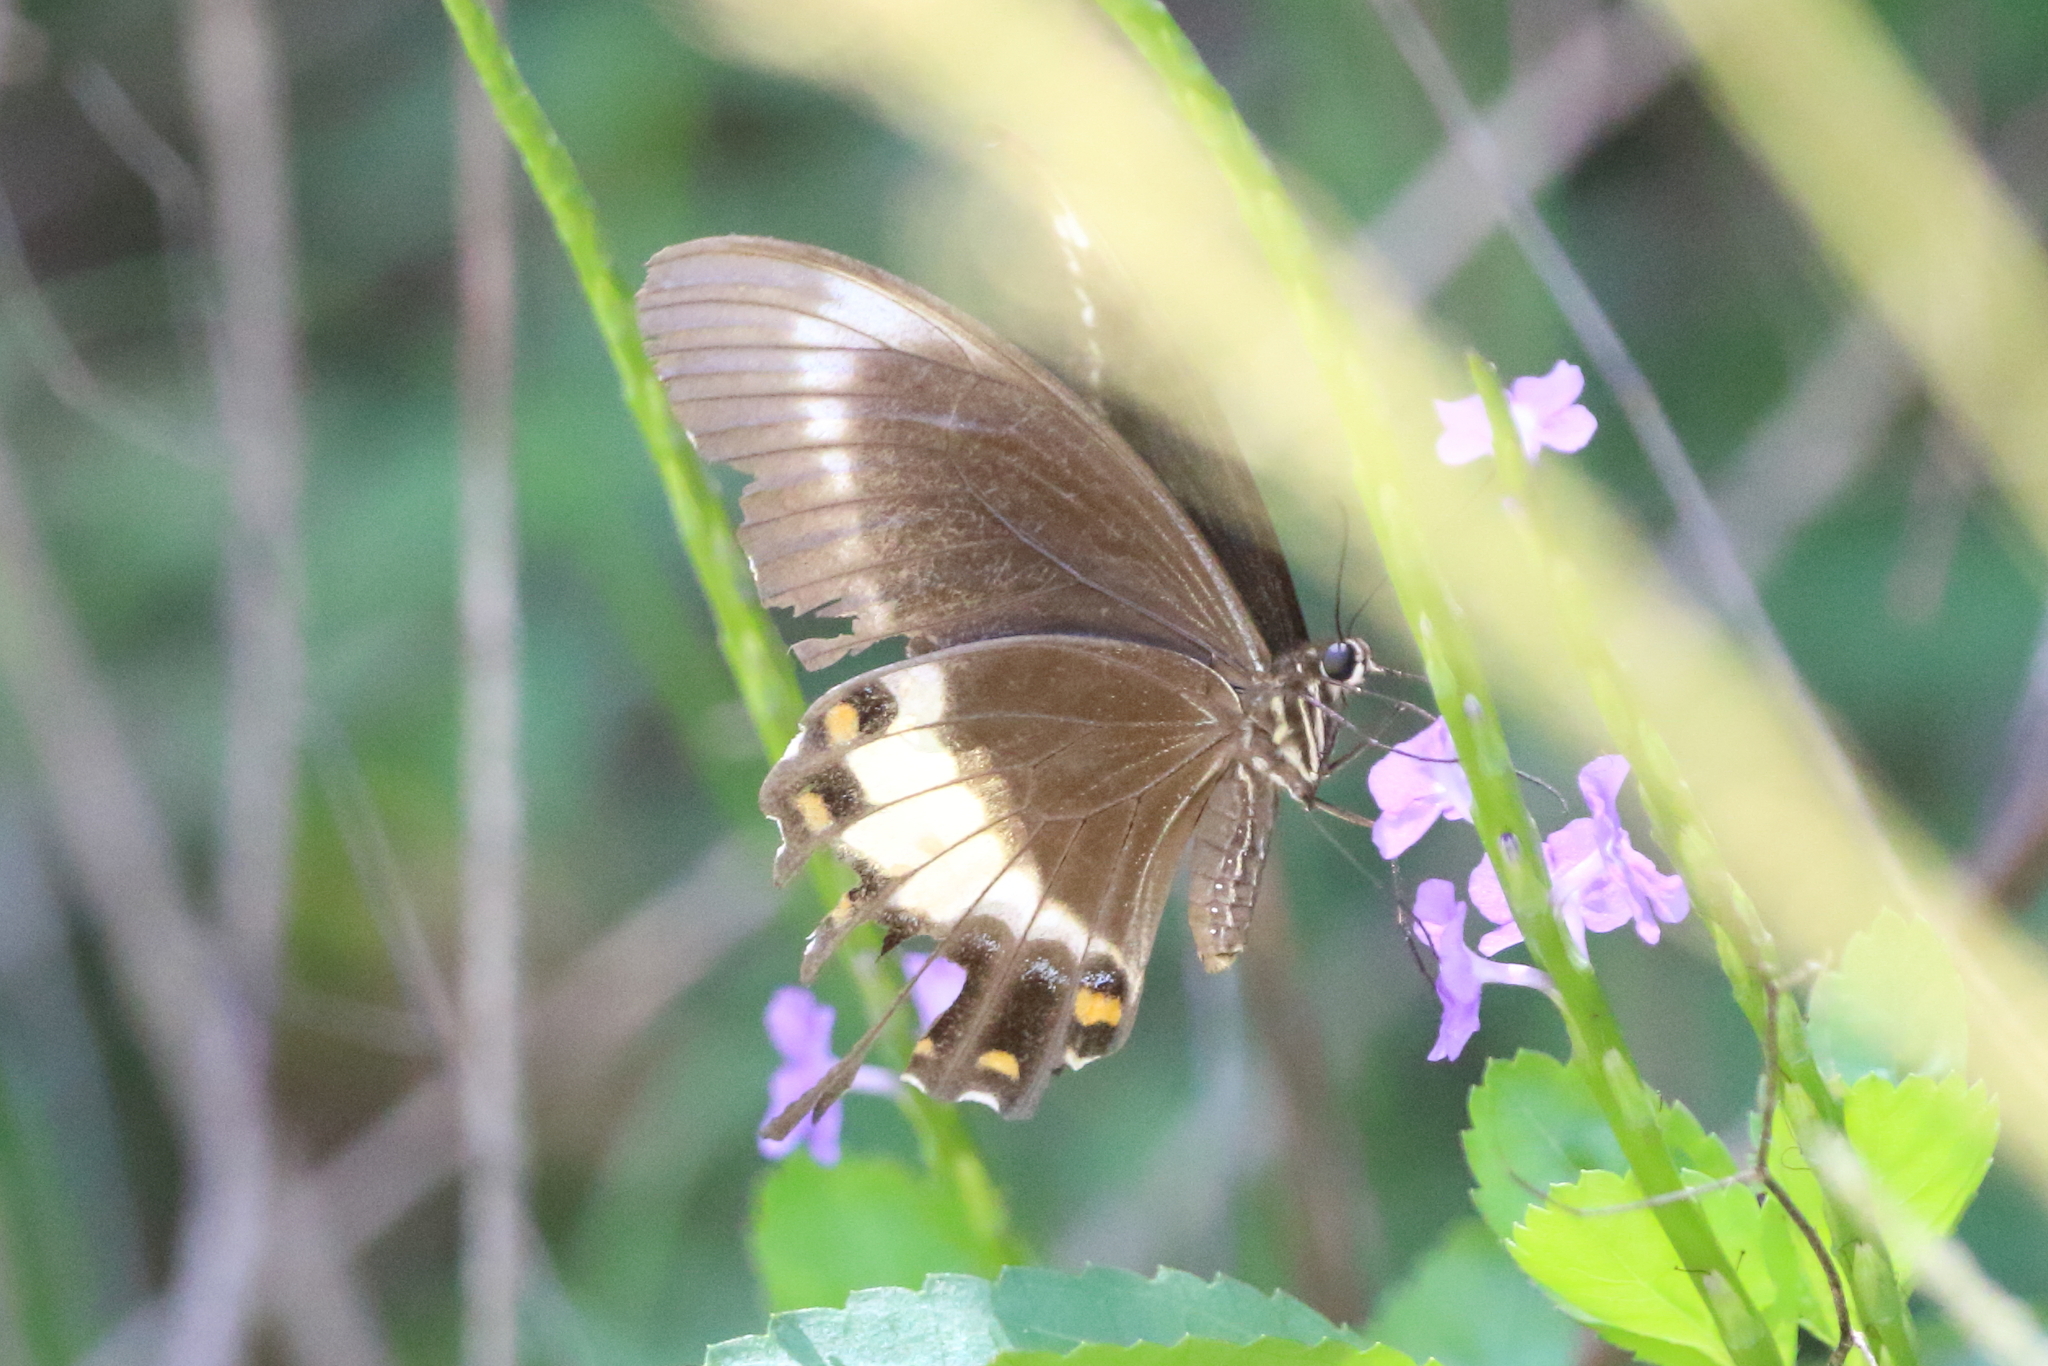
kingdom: Animalia
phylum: Arthropoda
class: Insecta
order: Lepidoptera
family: Lycaenidae
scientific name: Lycaenidae
